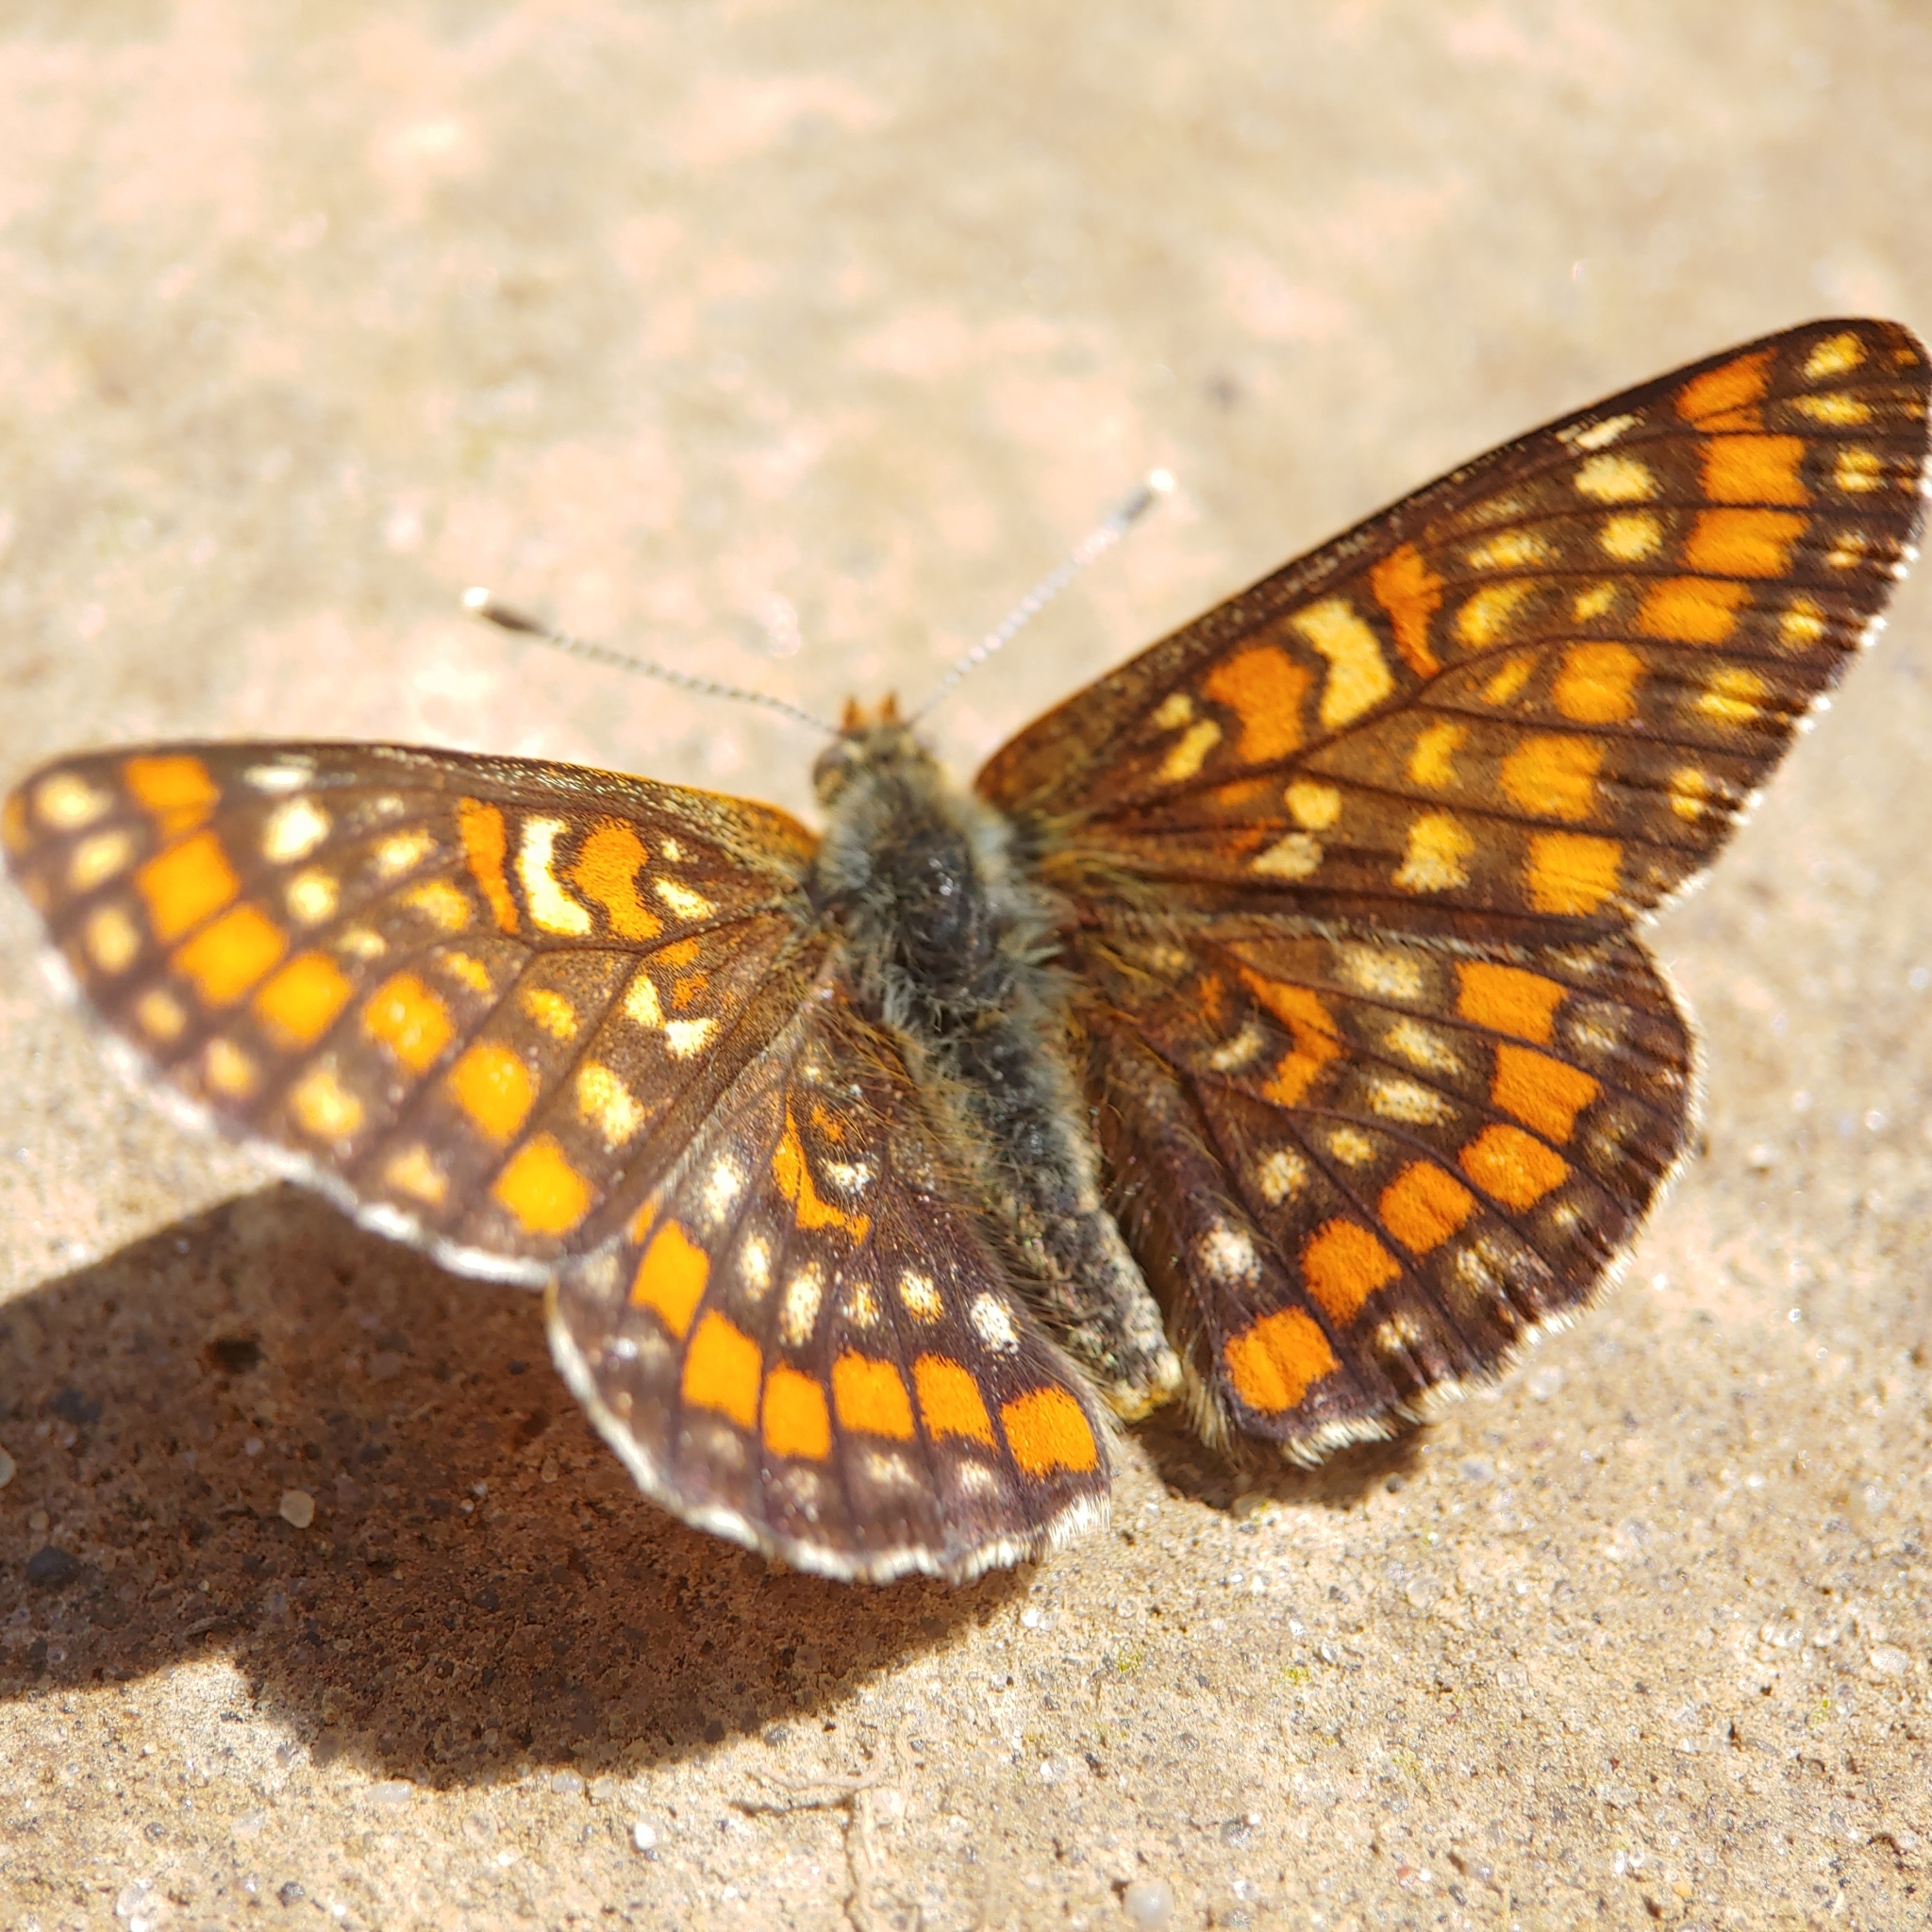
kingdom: Animalia
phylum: Arthropoda
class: Insecta
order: Lepidoptera
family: Nymphalidae
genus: Euphydryas
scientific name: Euphydryas maturna
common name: Scarce fritillary
